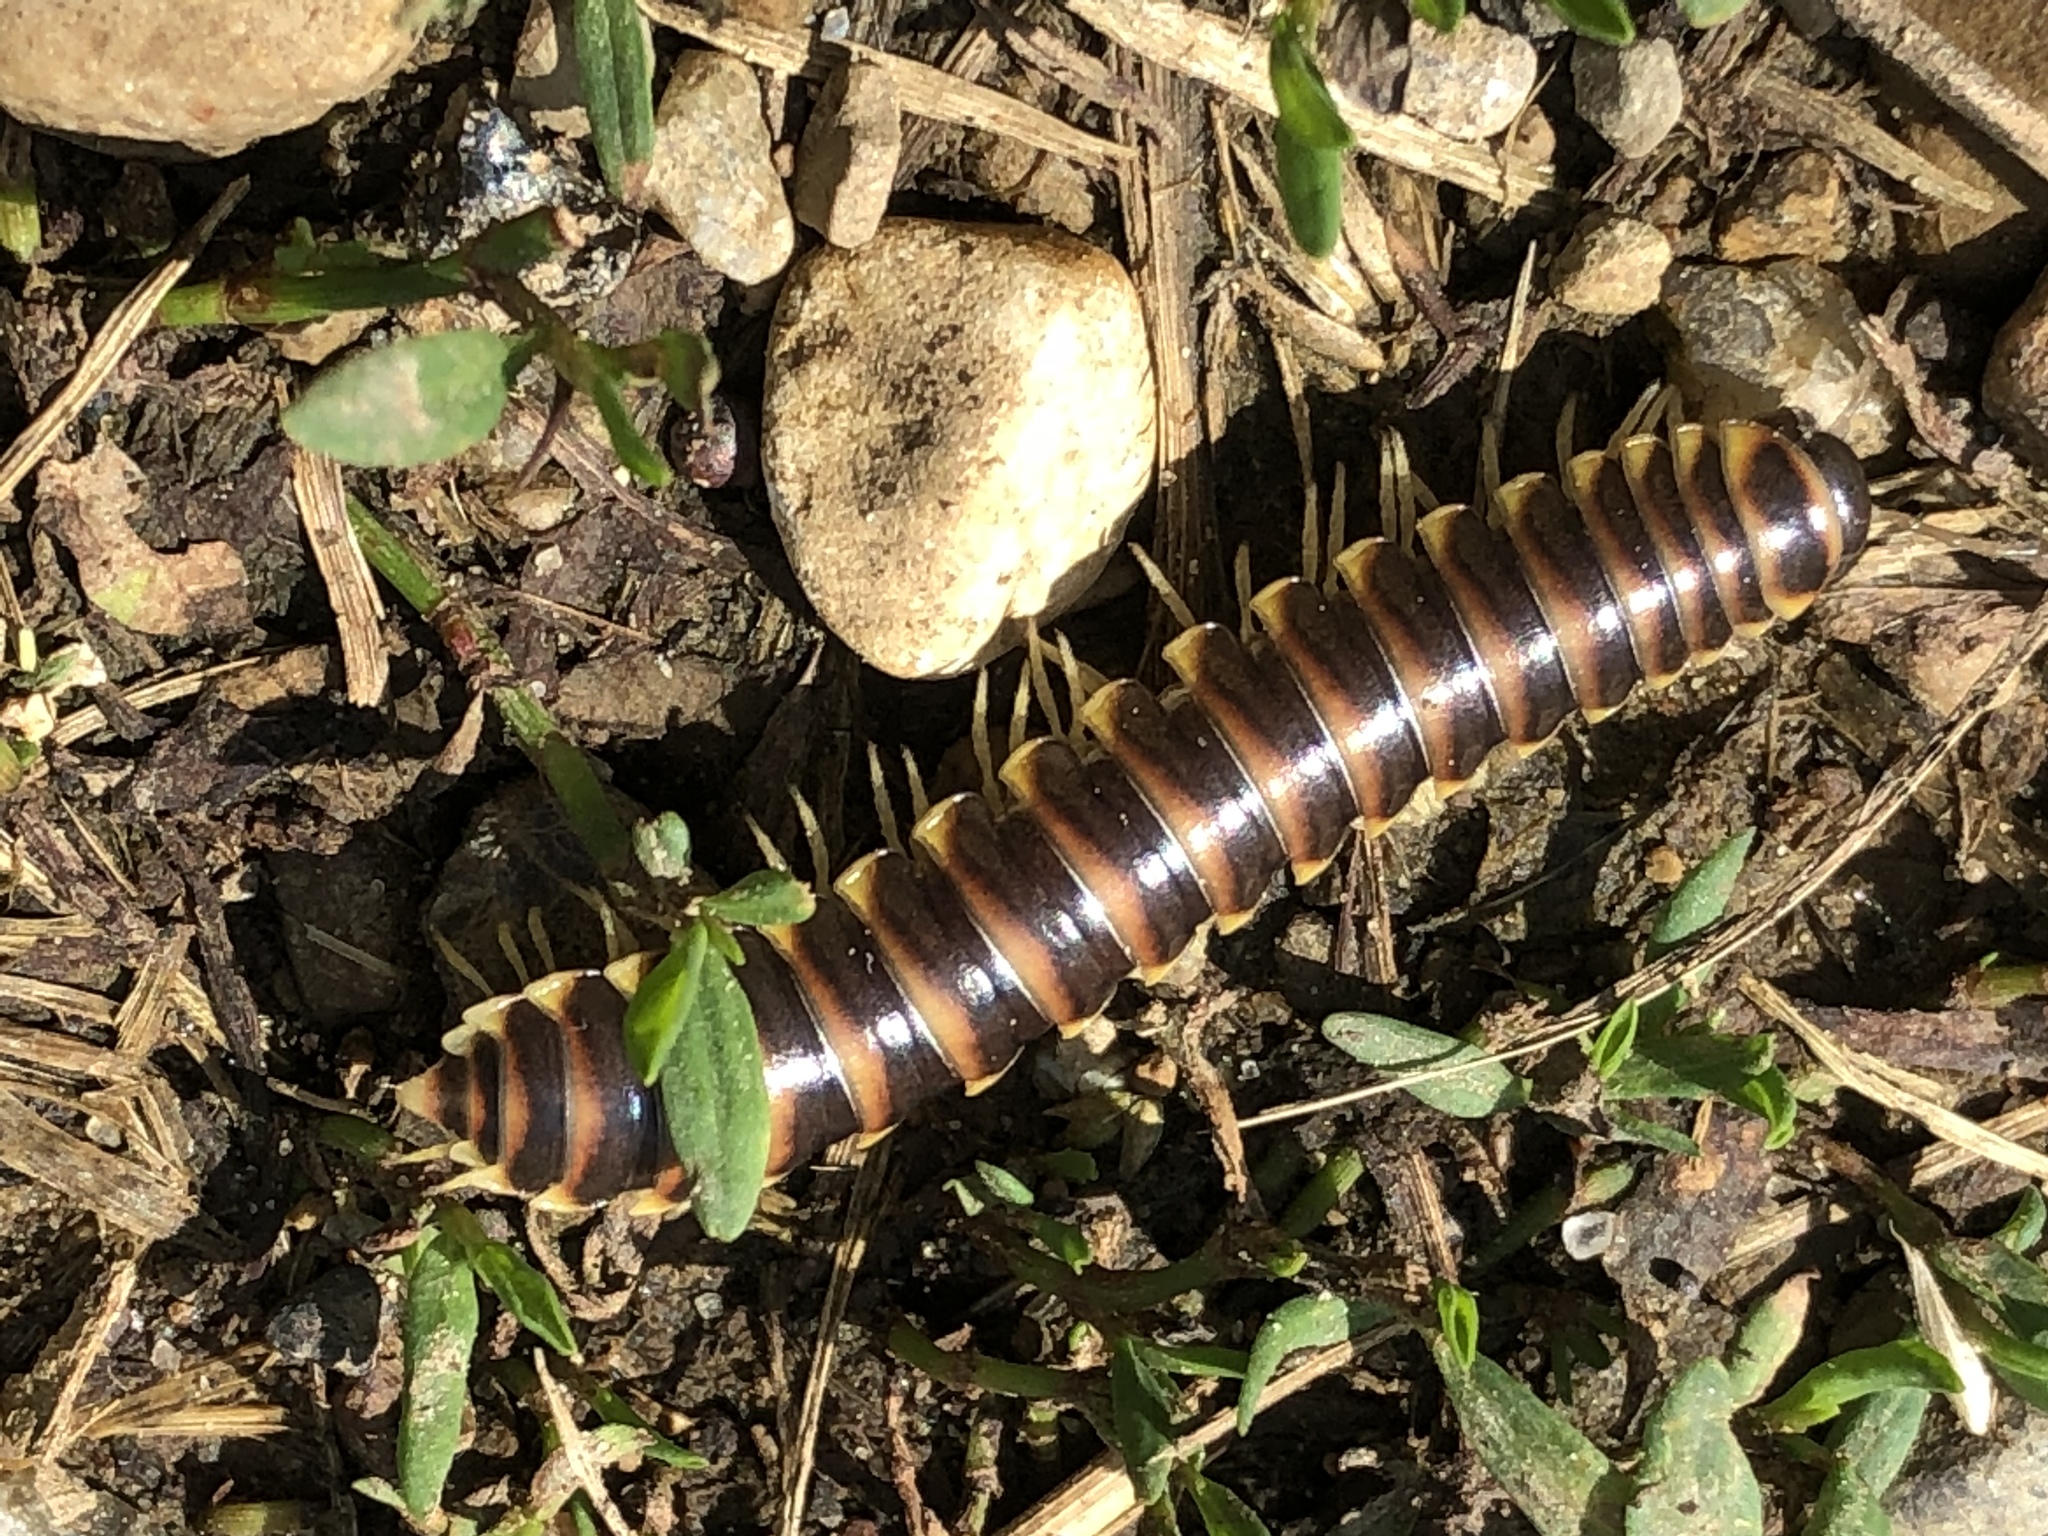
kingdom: Animalia
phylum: Arthropoda
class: Diplopoda
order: Polydesmida
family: Xystodesmidae
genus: Pleuroloma
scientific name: Pleuroloma flavipes
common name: Yellow-legged pleuroloma
